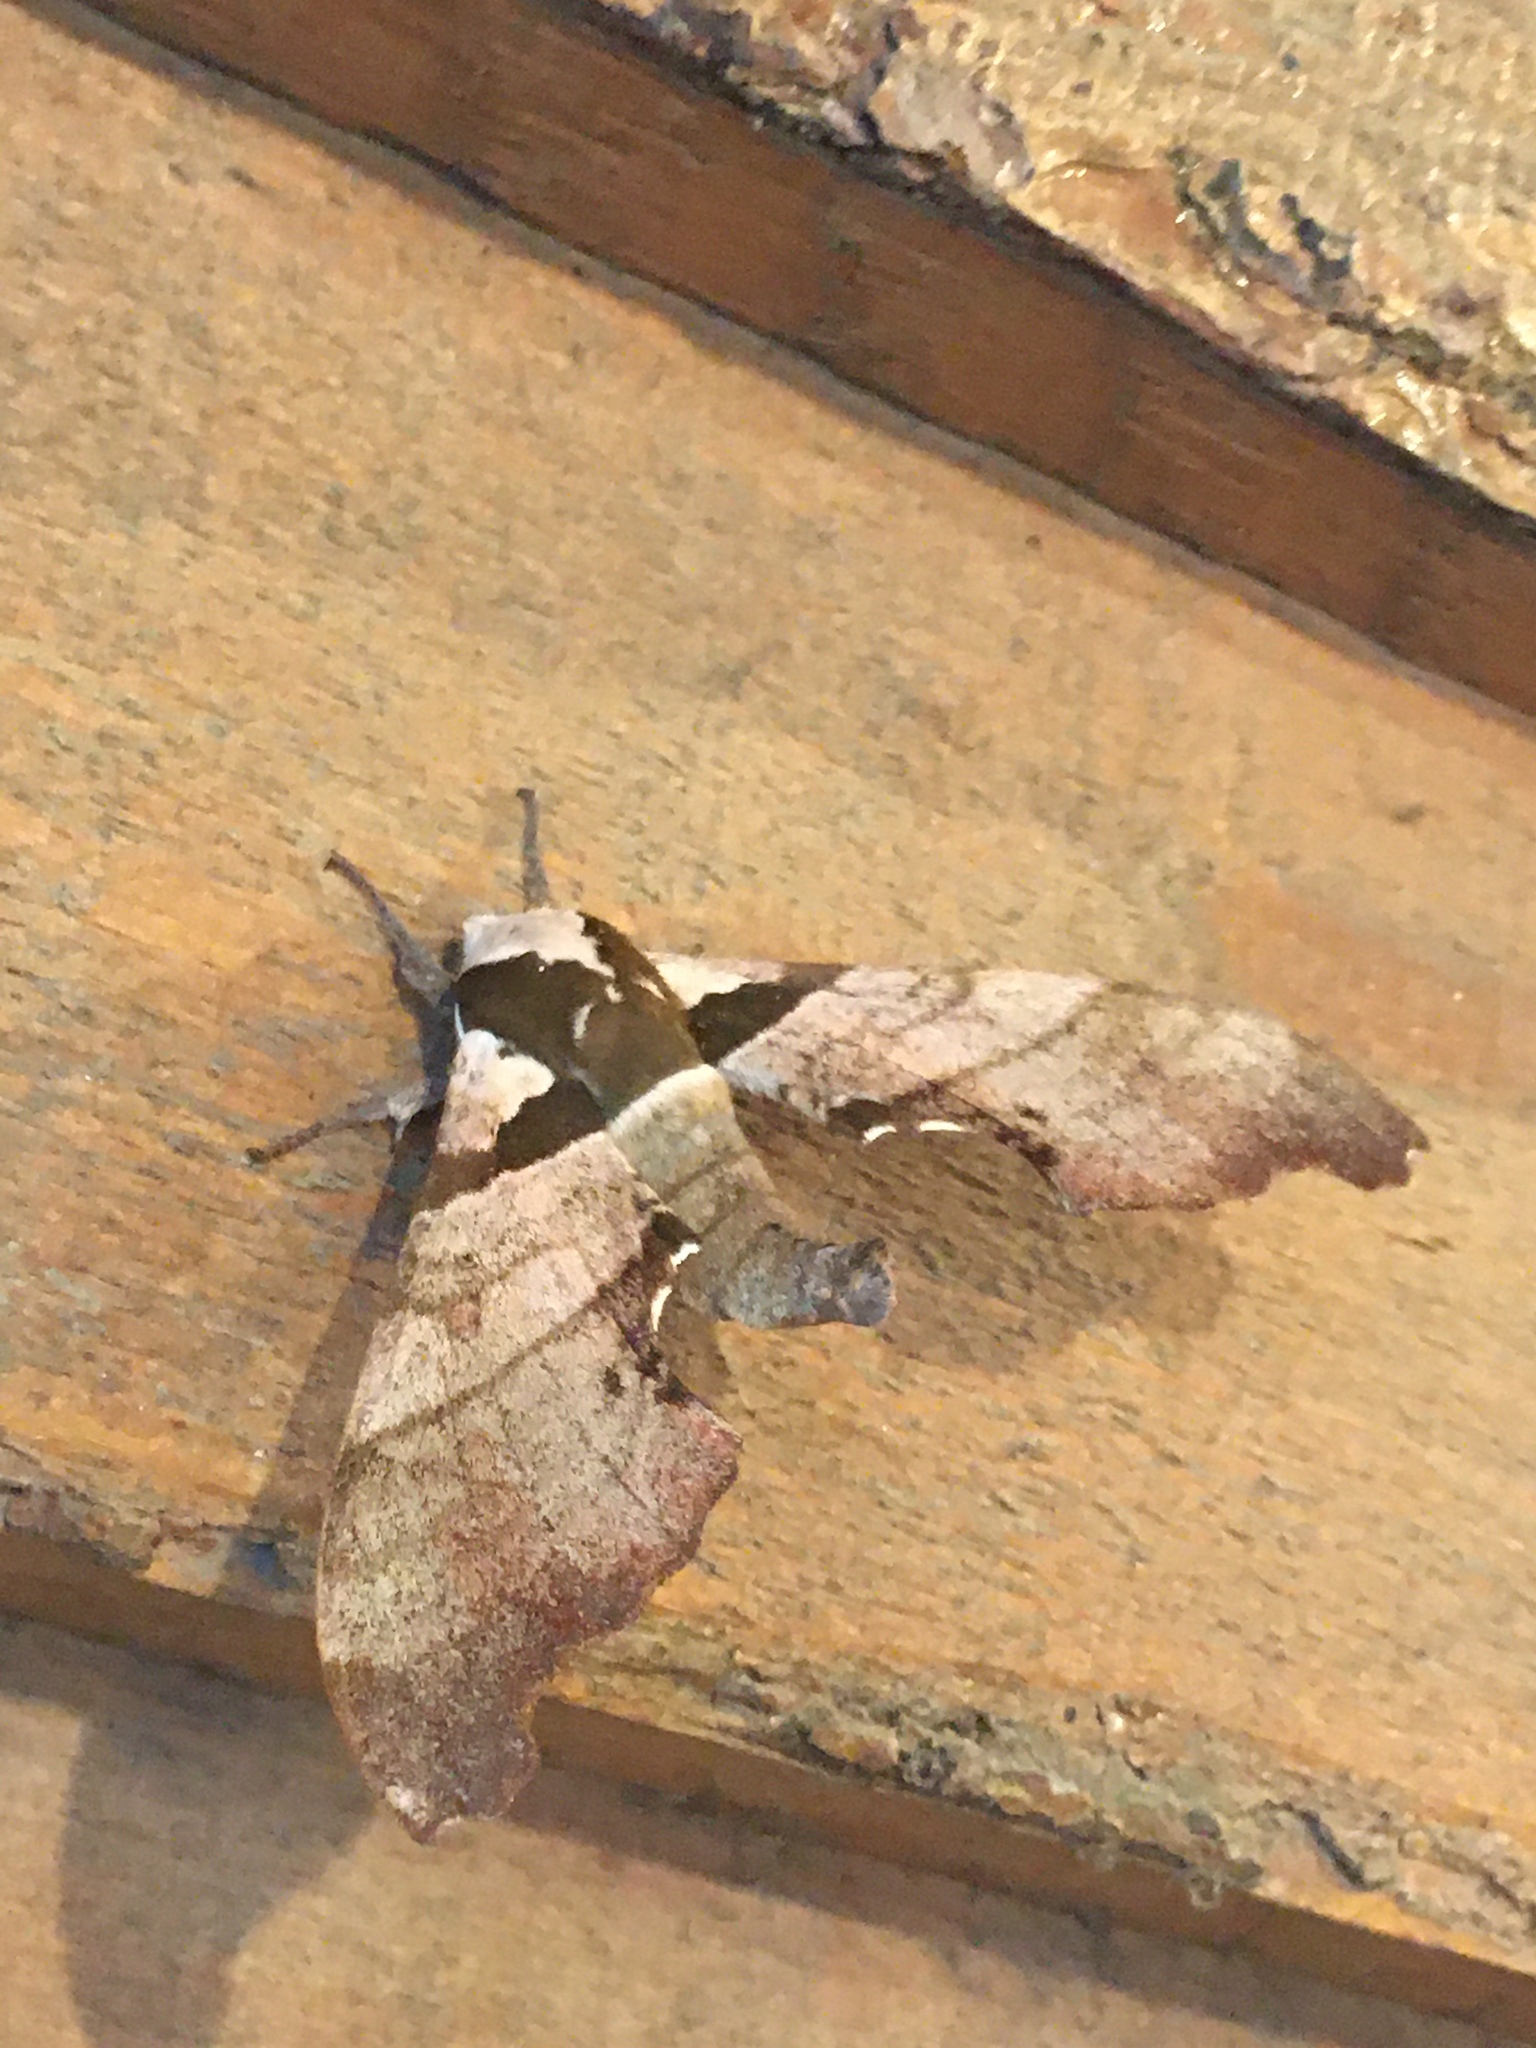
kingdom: Animalia
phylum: Arthropoda
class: Insecta
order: Lepidoptera
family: Sphingidae
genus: Trogolegnum
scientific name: Trogolegnum pseudambulyx
